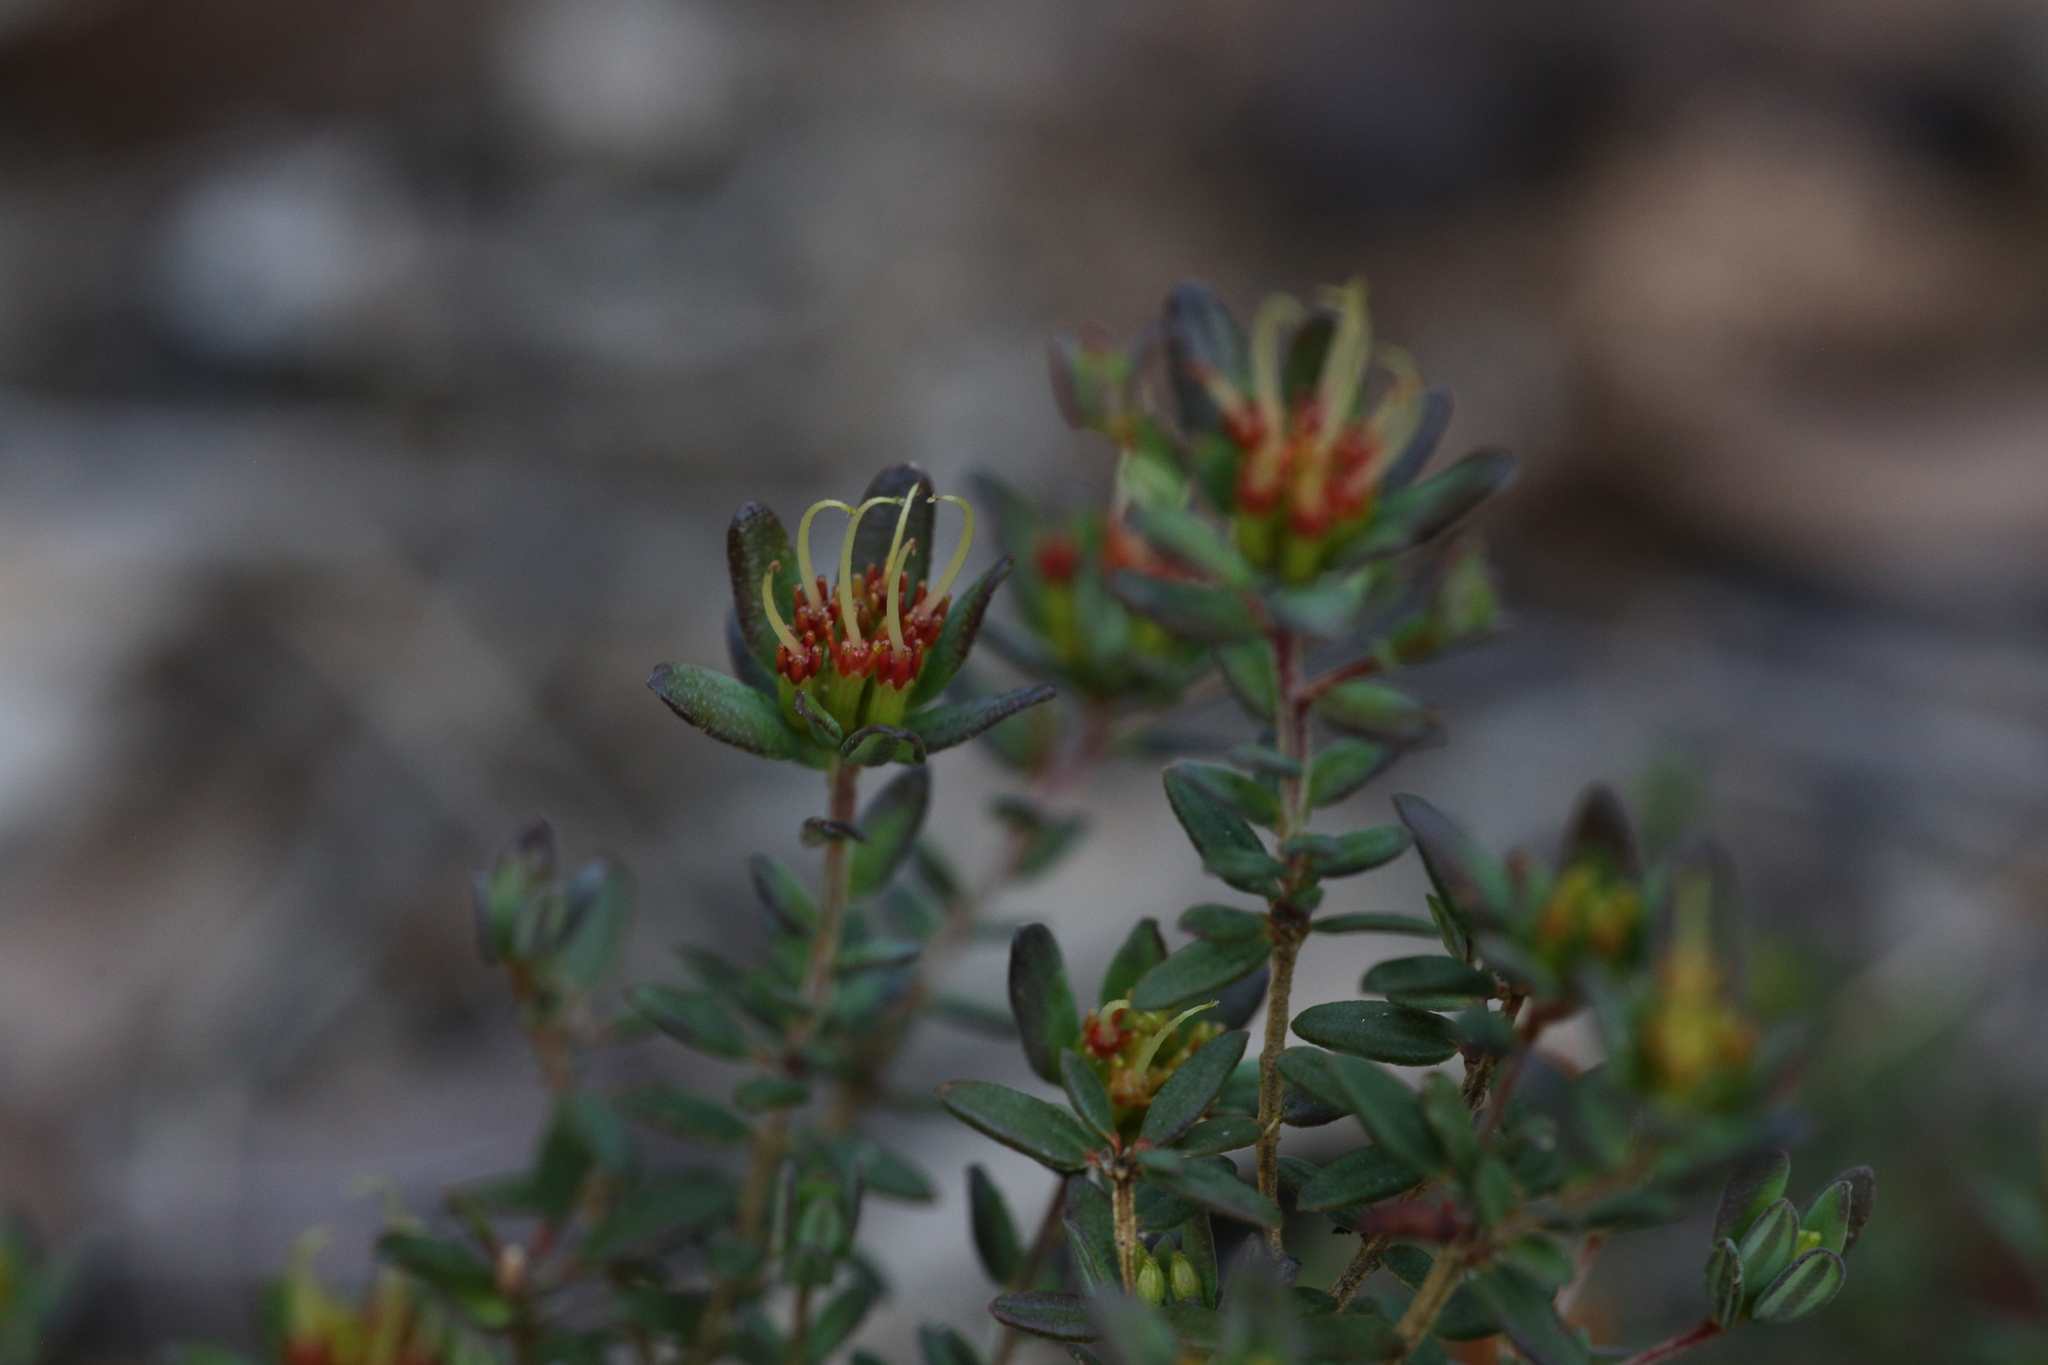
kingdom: Plantae
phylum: Tracheophyta
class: Magnoliopsida
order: Myrtales
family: Myrtaceae
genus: Darwinia
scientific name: Darwinia thymoides
